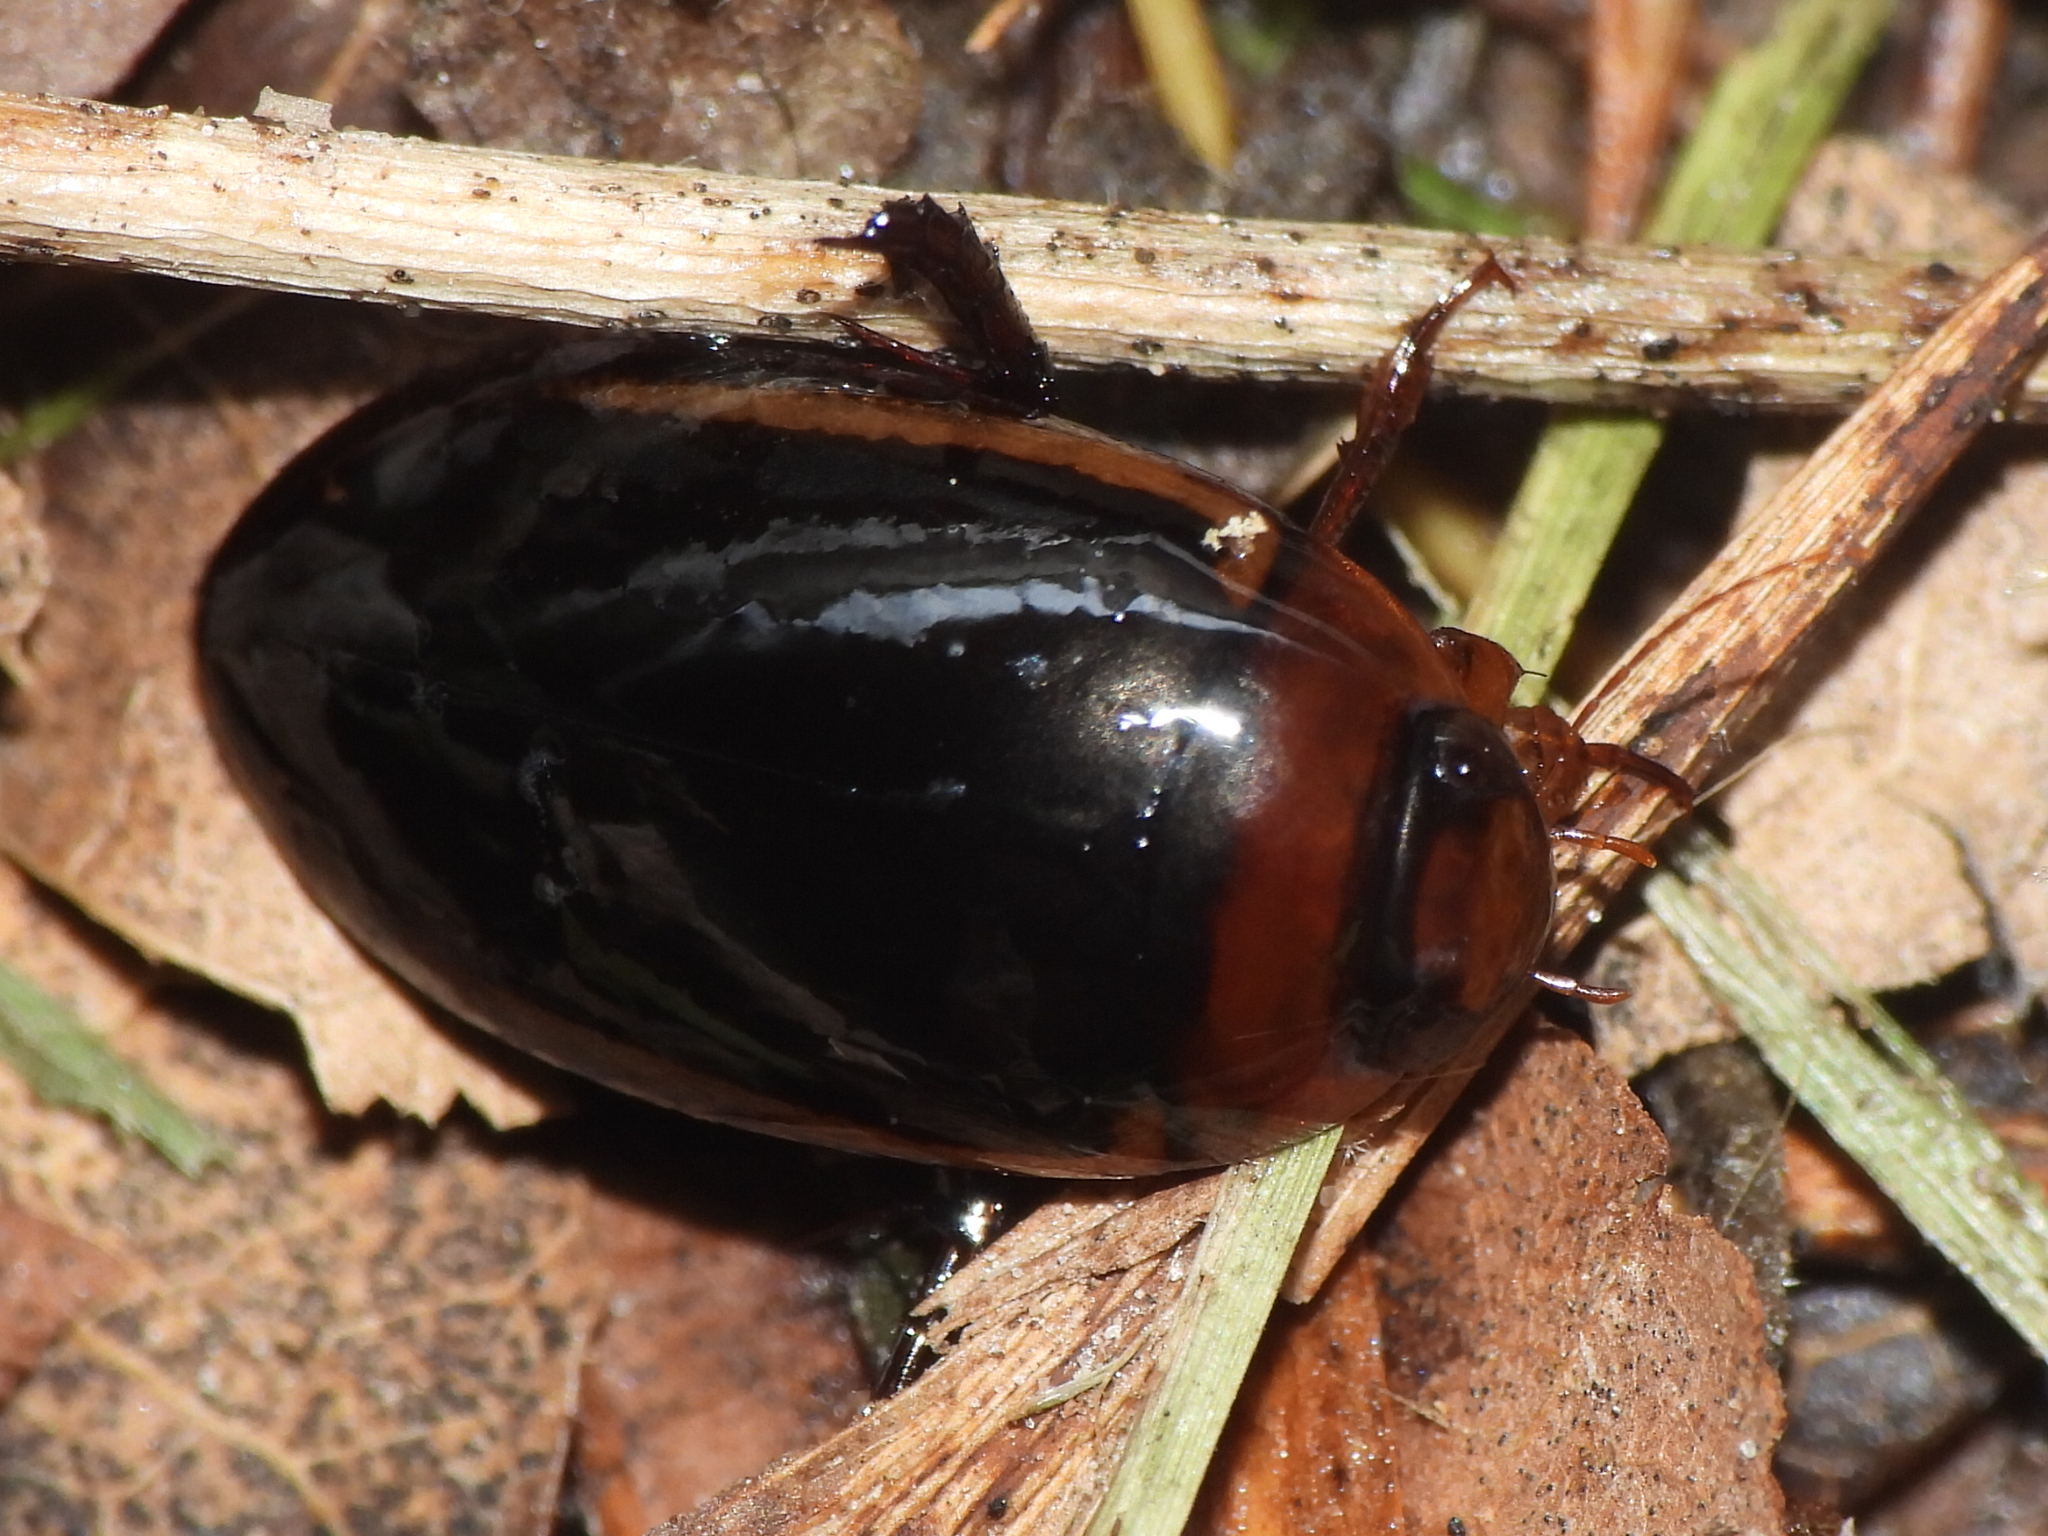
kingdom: Animalia
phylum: Arthropoda
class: Insecta
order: Coleoptera
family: Dytiscidae
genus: Hydaticus
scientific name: Hydaticus bimarginatus
